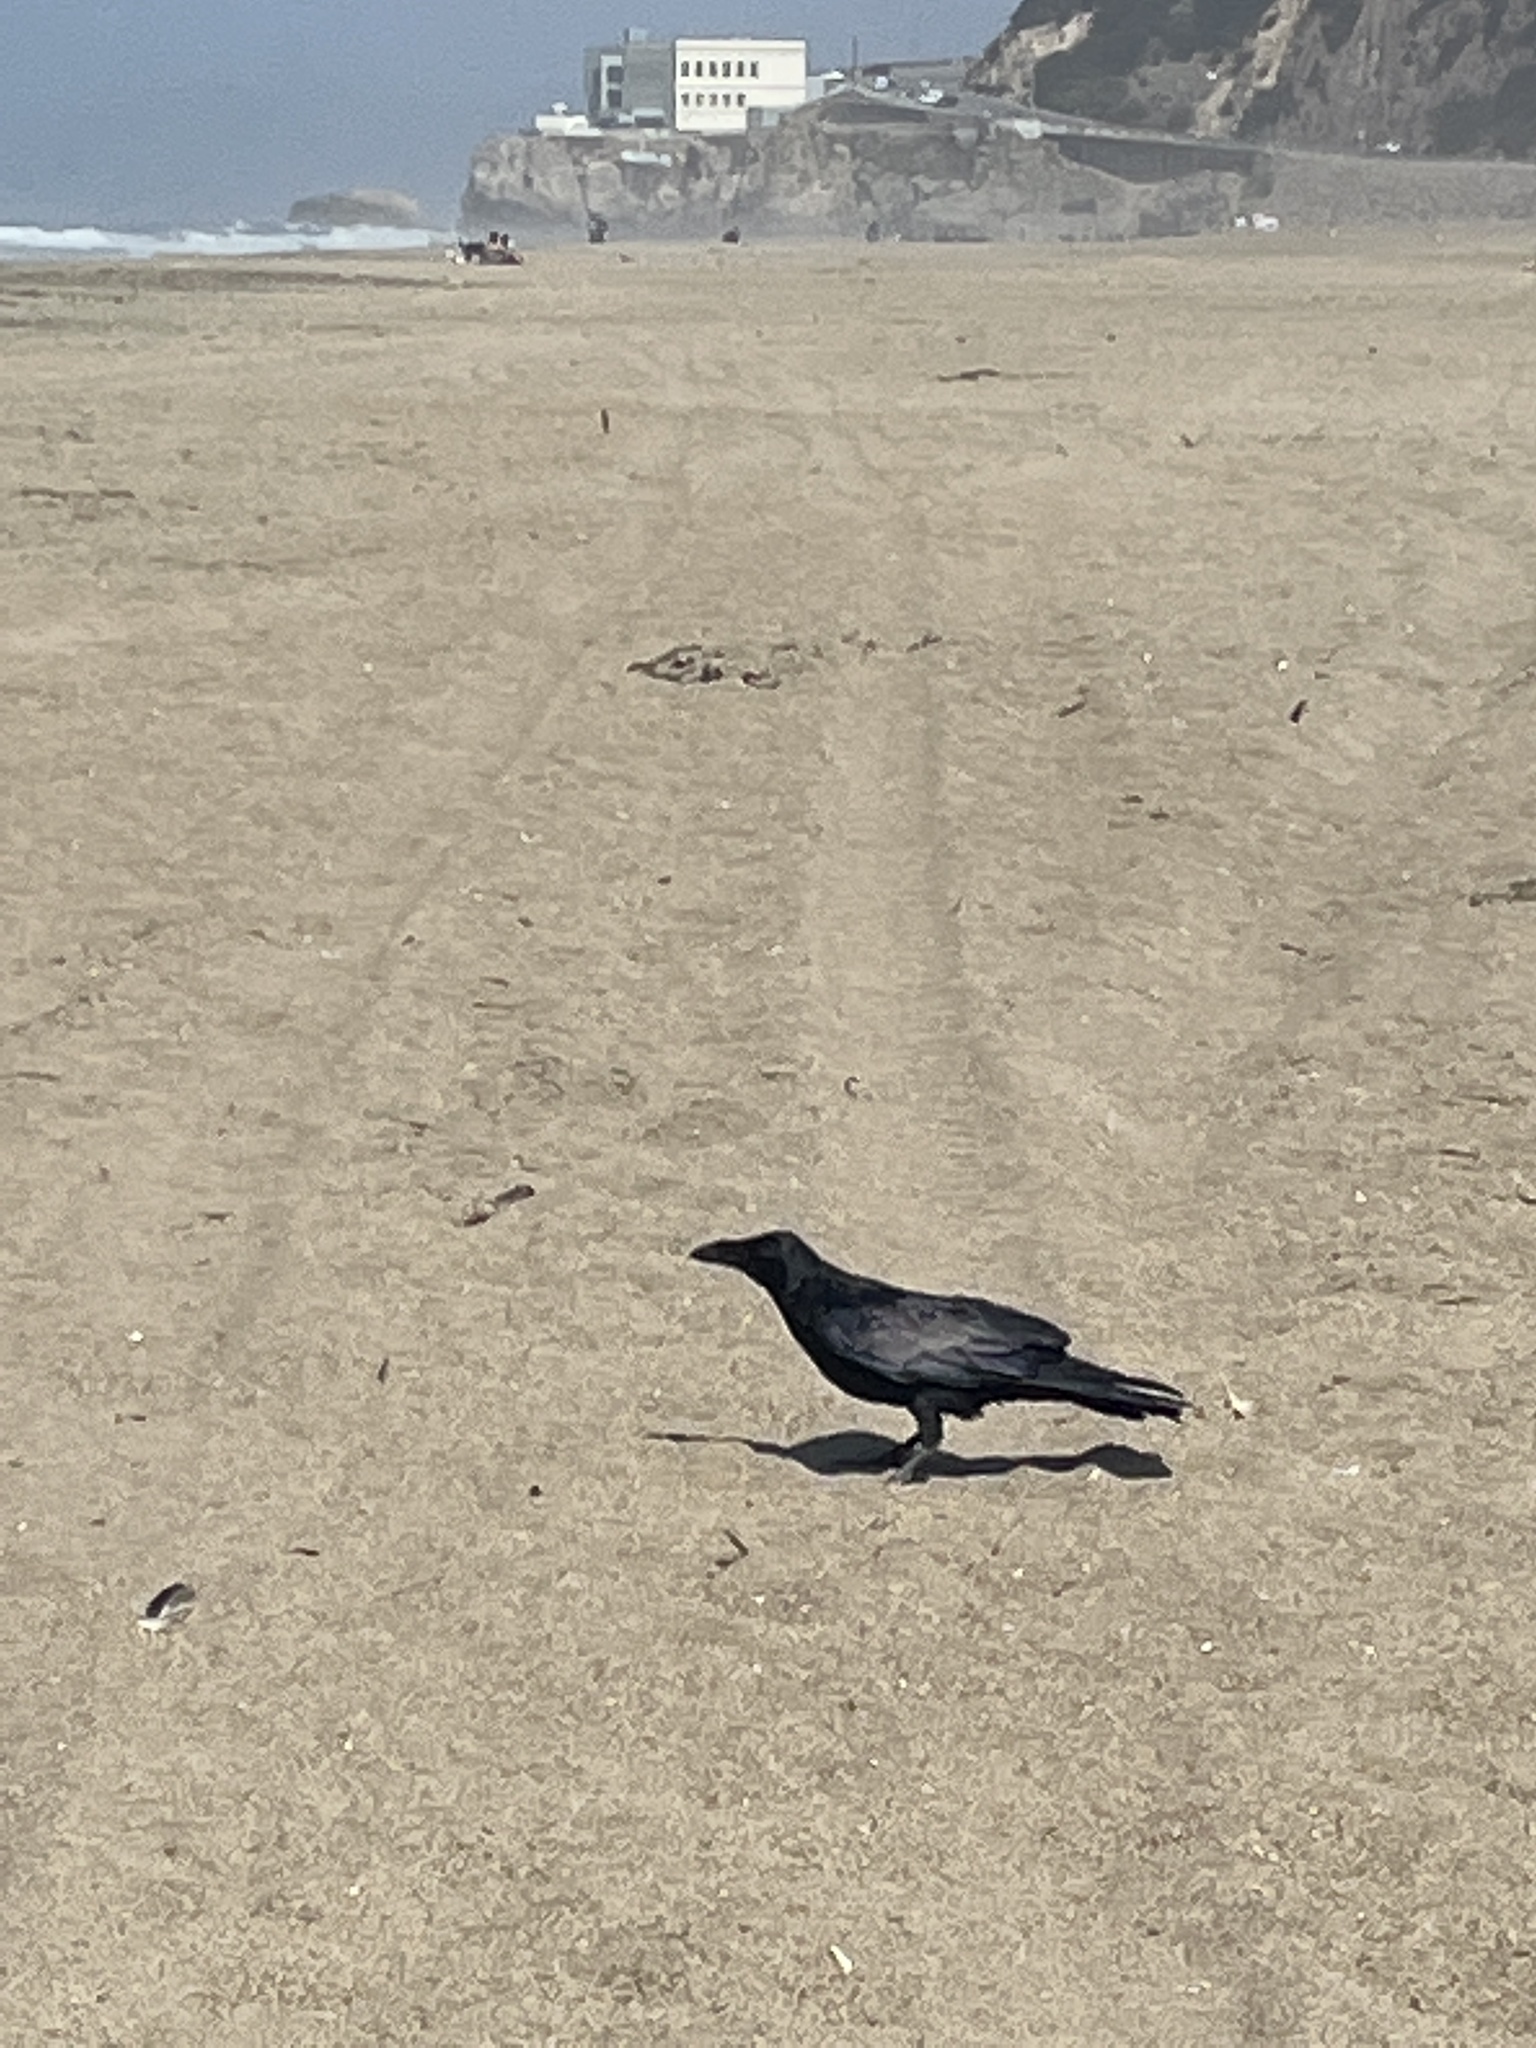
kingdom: Animalia
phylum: Chordata
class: Aves
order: Passeriformes
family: Corvidae
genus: Corvus
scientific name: Corvus corax
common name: Common raven
